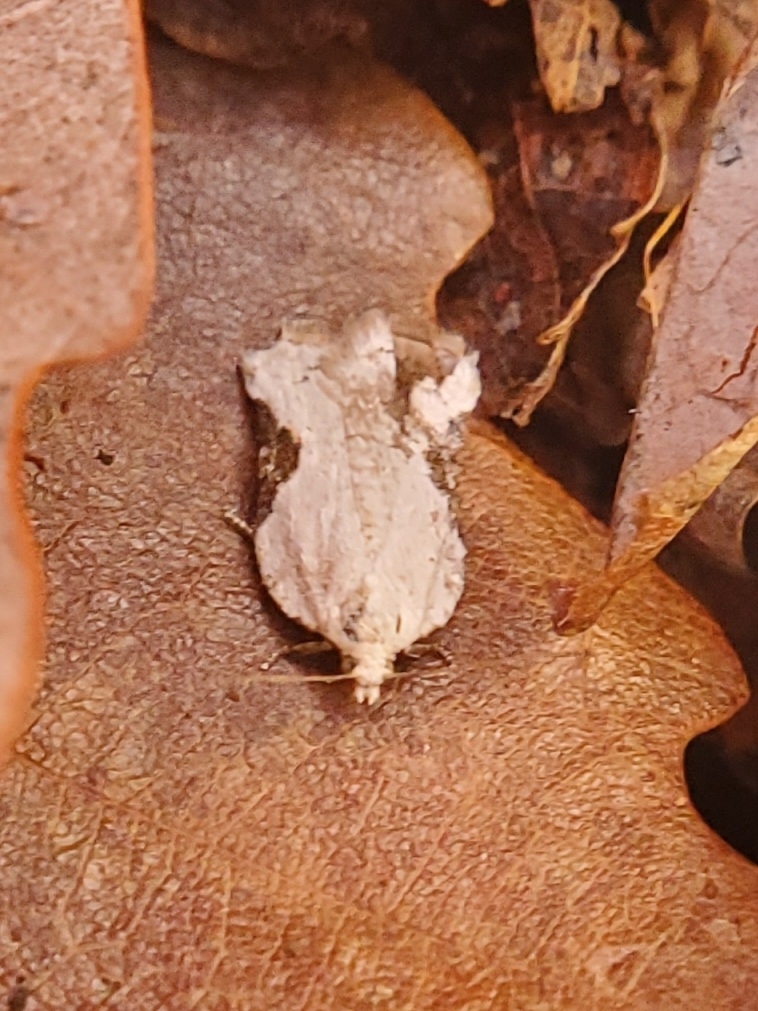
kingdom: Animalia
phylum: Arthropoda
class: Insecta
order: Lepidoptera
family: Tortricidae
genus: Acleris
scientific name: Acleris subnivana
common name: Bent-winged acleris moth
